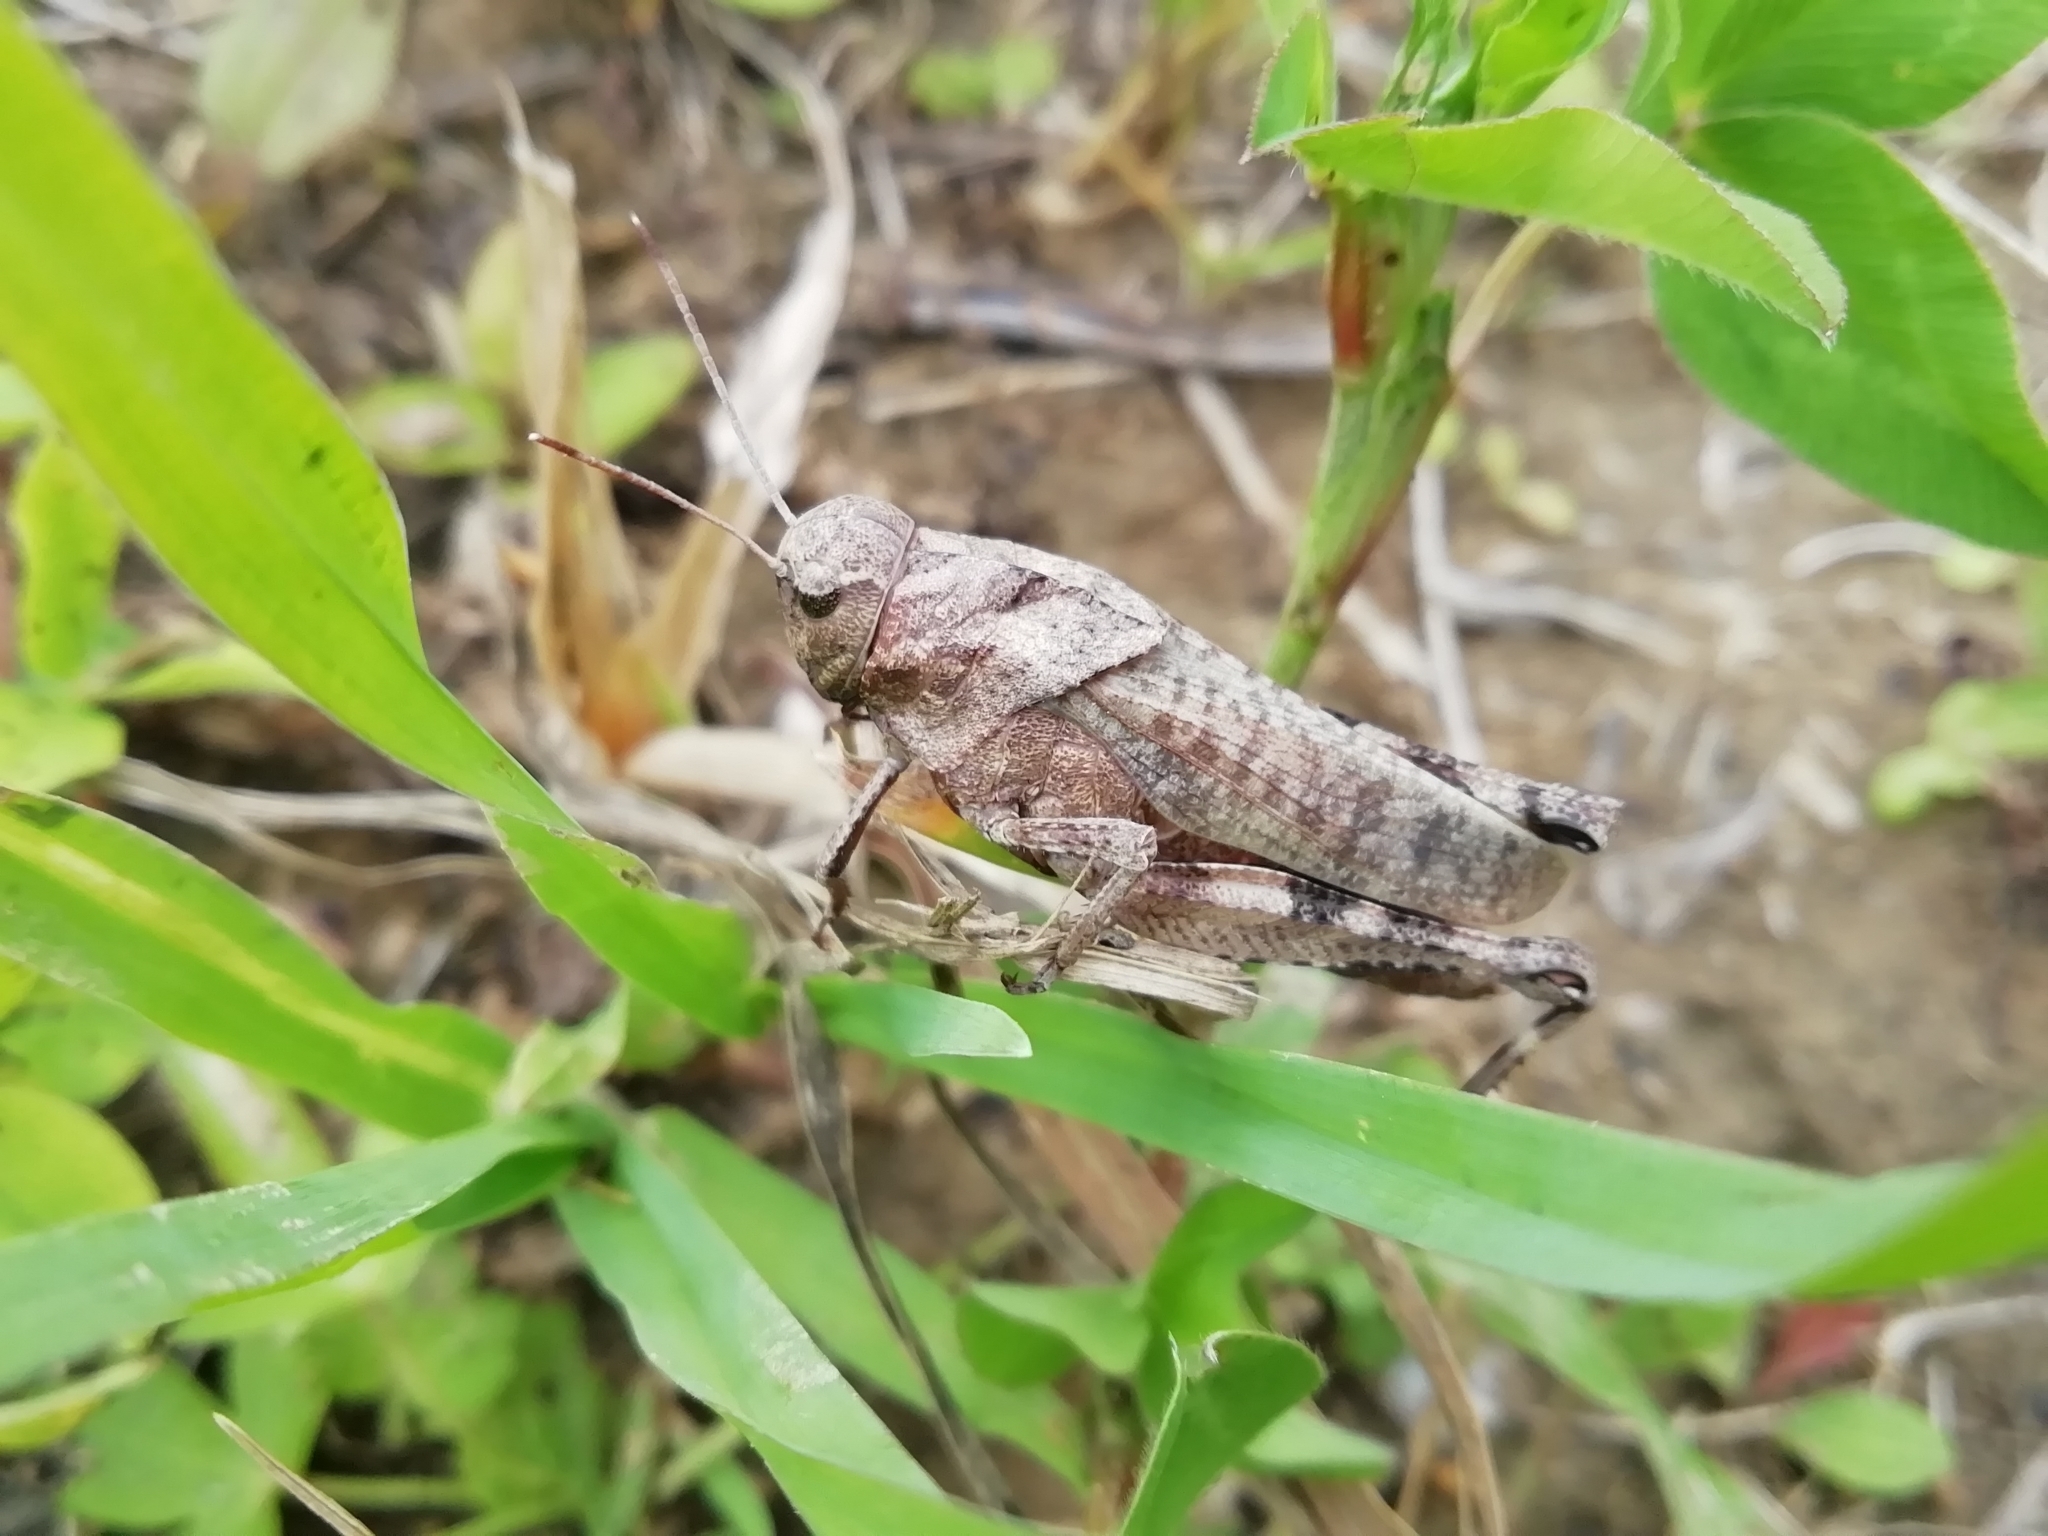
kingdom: Animalia
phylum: Arthropoda
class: Insecta
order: Orthoptera
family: Acrididae
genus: Psophus
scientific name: Psophus stridulus
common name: Rattle grasshopper
